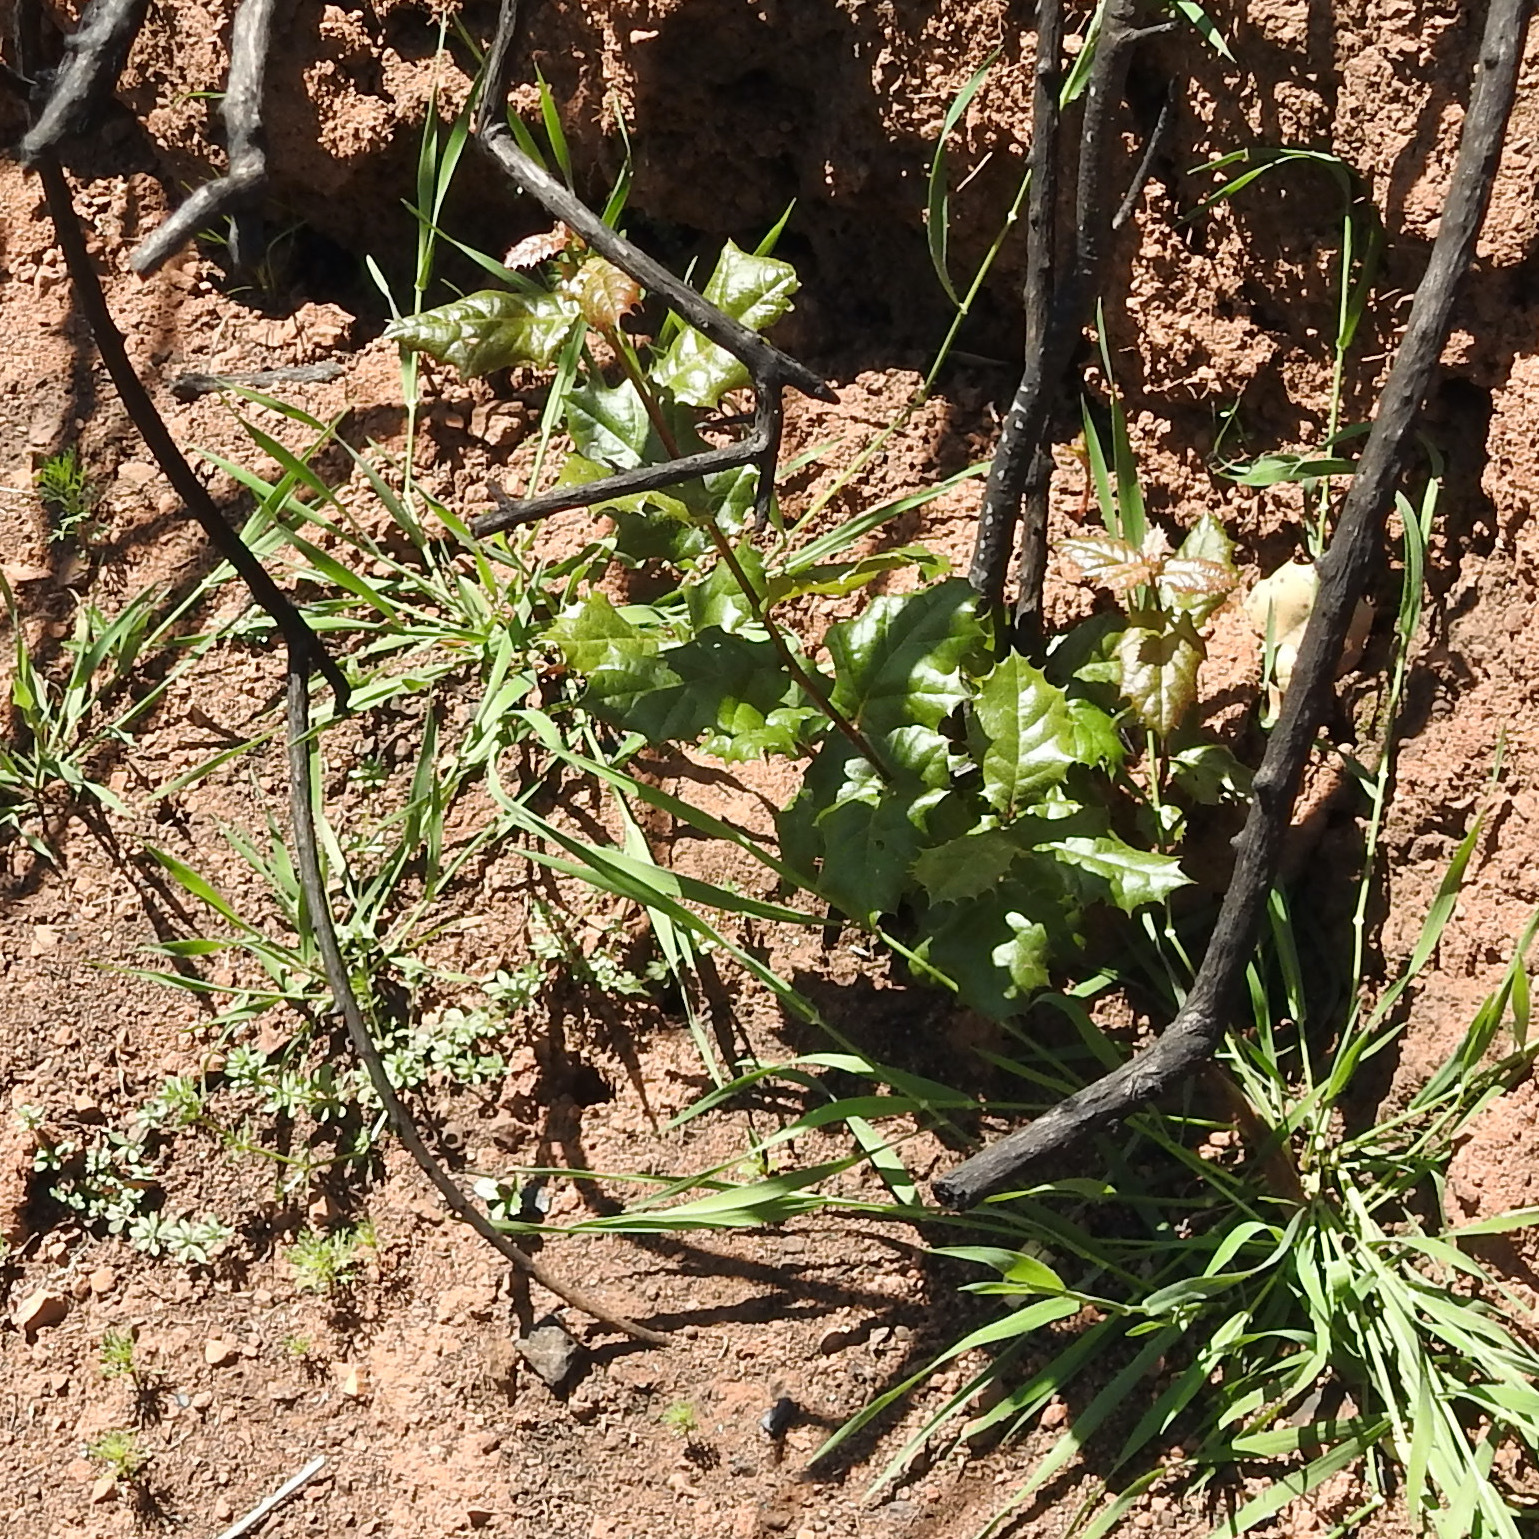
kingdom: Plantae
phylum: Tracheophyta
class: Magnoliopsida
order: Fagales
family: Fagaceae
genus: Quercus
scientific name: Quercus agrifolia
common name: California live oak
